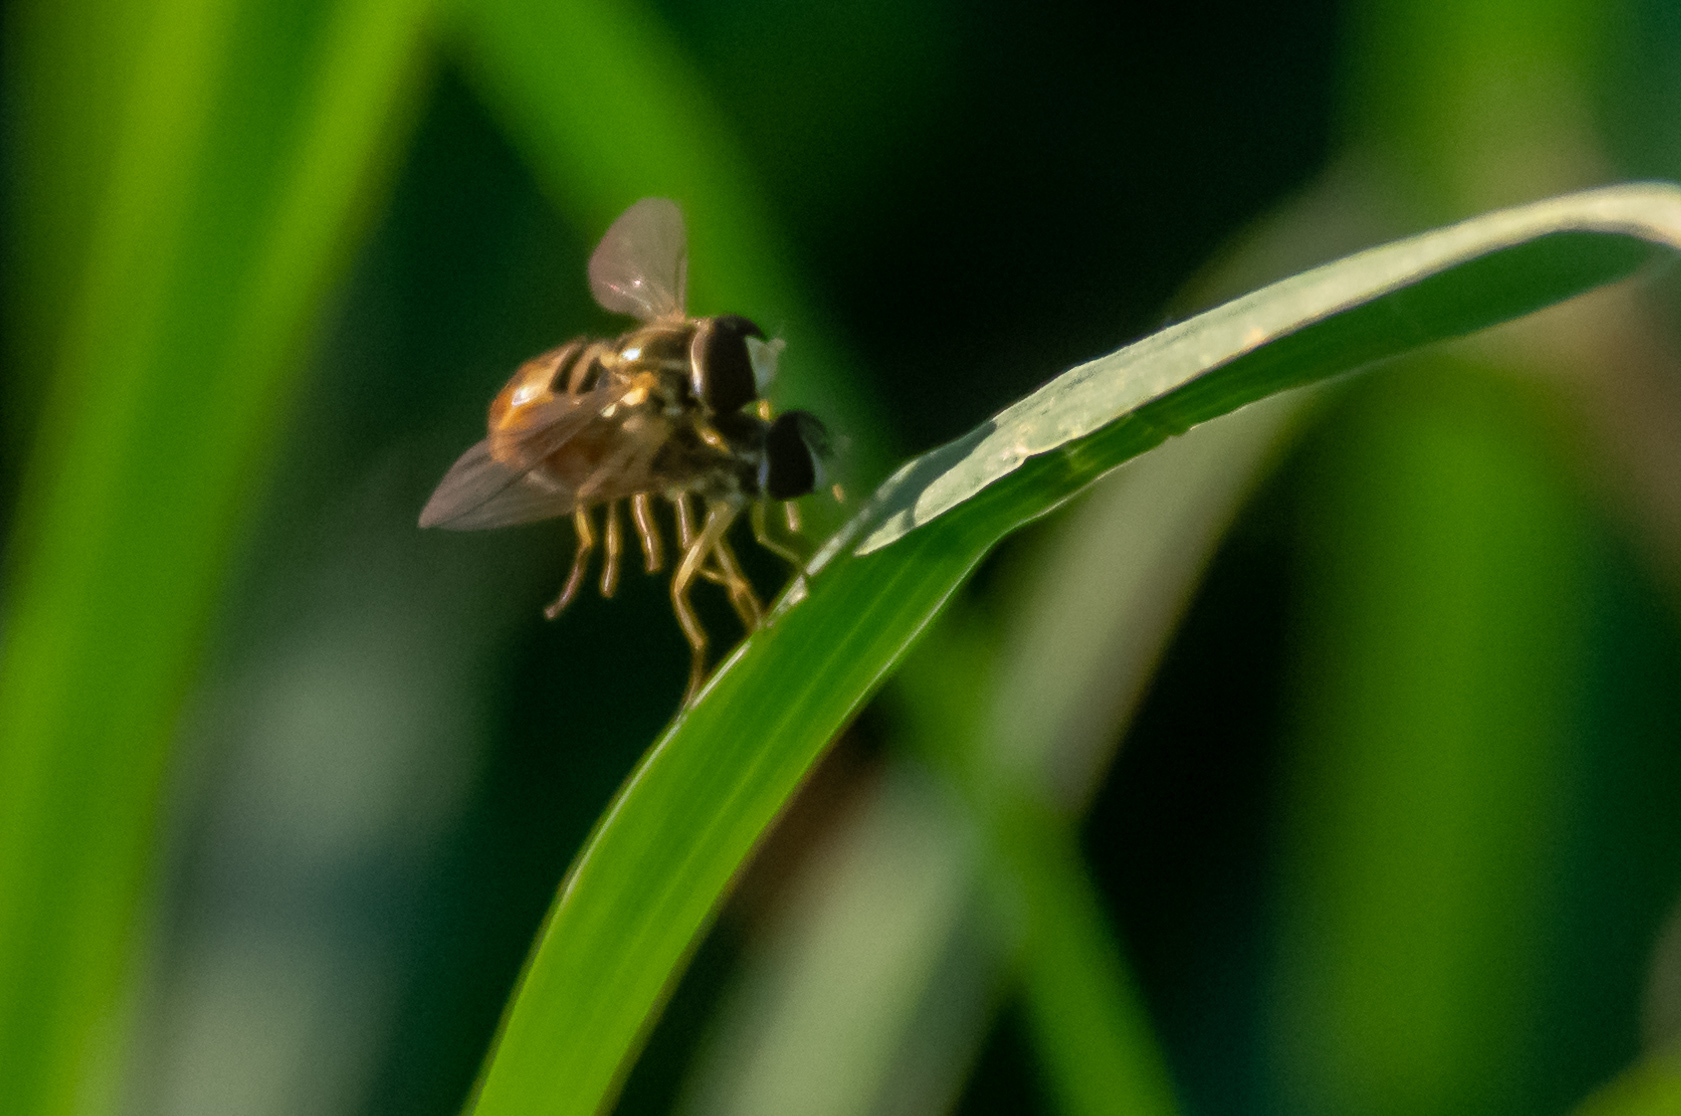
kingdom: Animalia
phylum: Arthropoda
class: Insecta
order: Diptera
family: Syrphidae
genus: Toxomerus
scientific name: Toxomerus marginatus
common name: Syrphid fly
